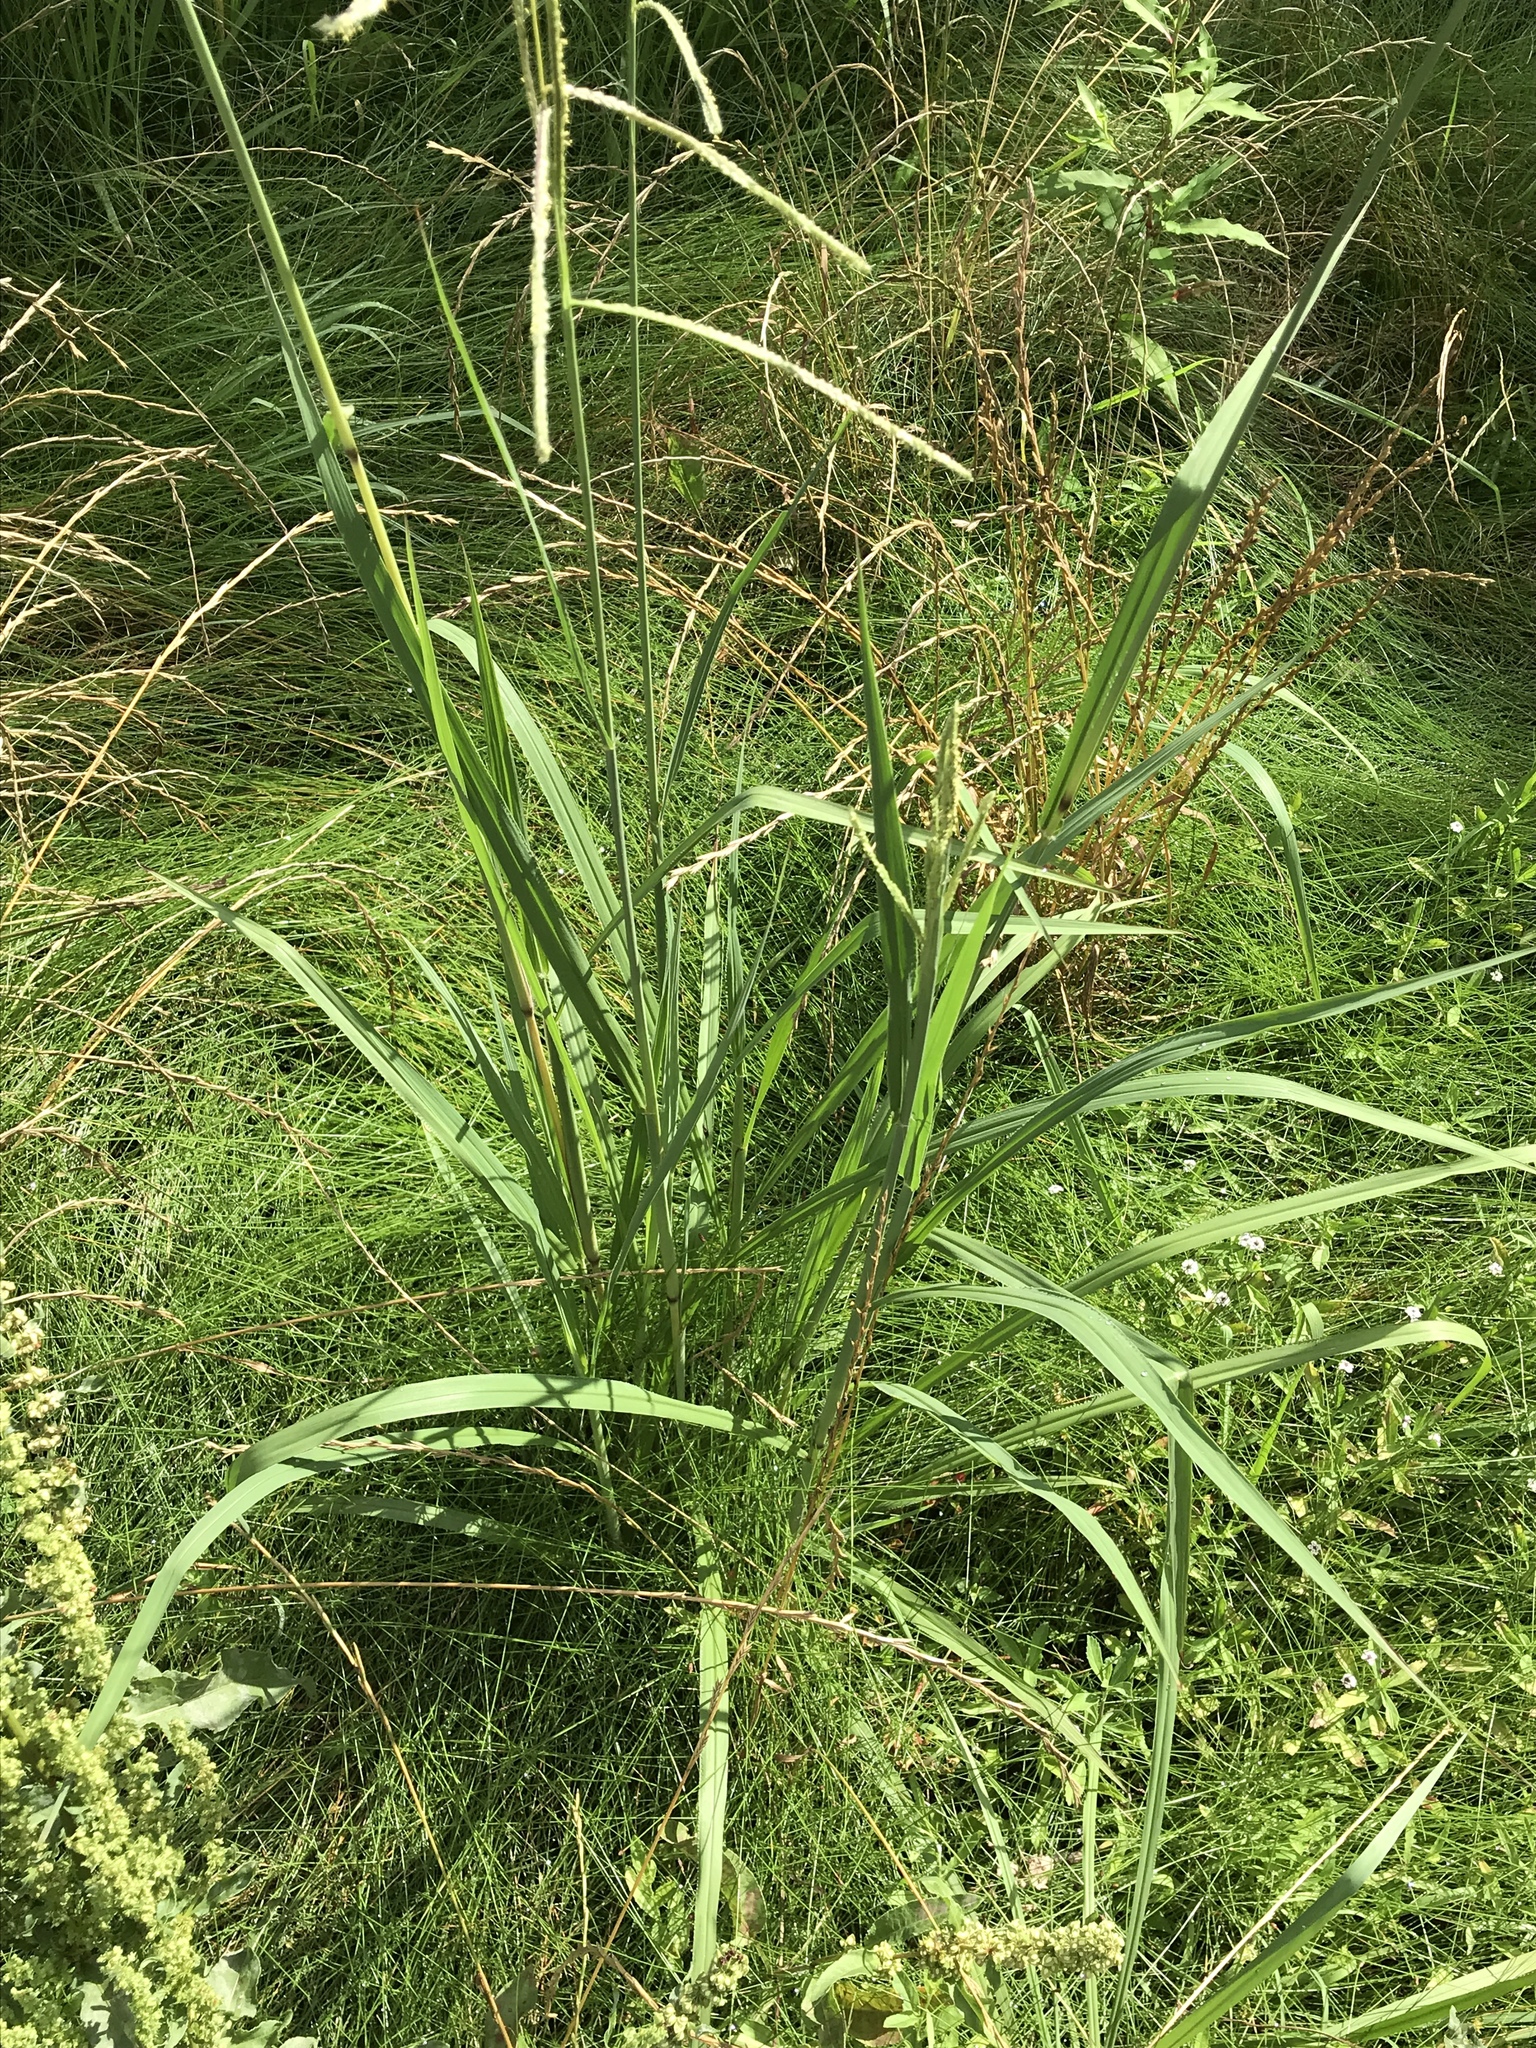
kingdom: Plantae
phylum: Tracheophyta
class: Liliopsida
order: Poales
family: Poaceae
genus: Paspalum
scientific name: Paspalum urvillei
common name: Vasey's grass
